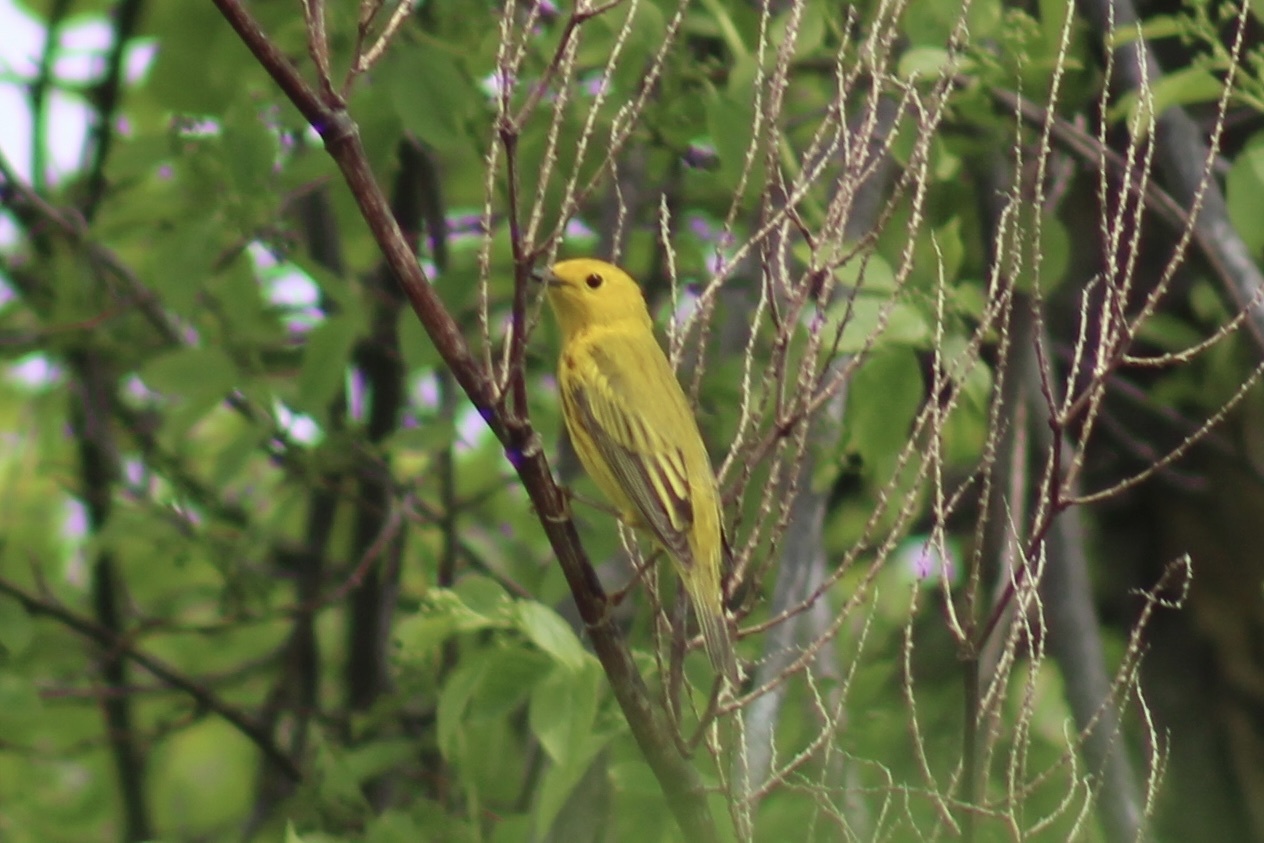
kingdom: Animalia
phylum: Chordata
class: Aves
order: Passeriformes
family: Parulidae
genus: Setophaga
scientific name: Setophaga petechia
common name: Yellow warbler
